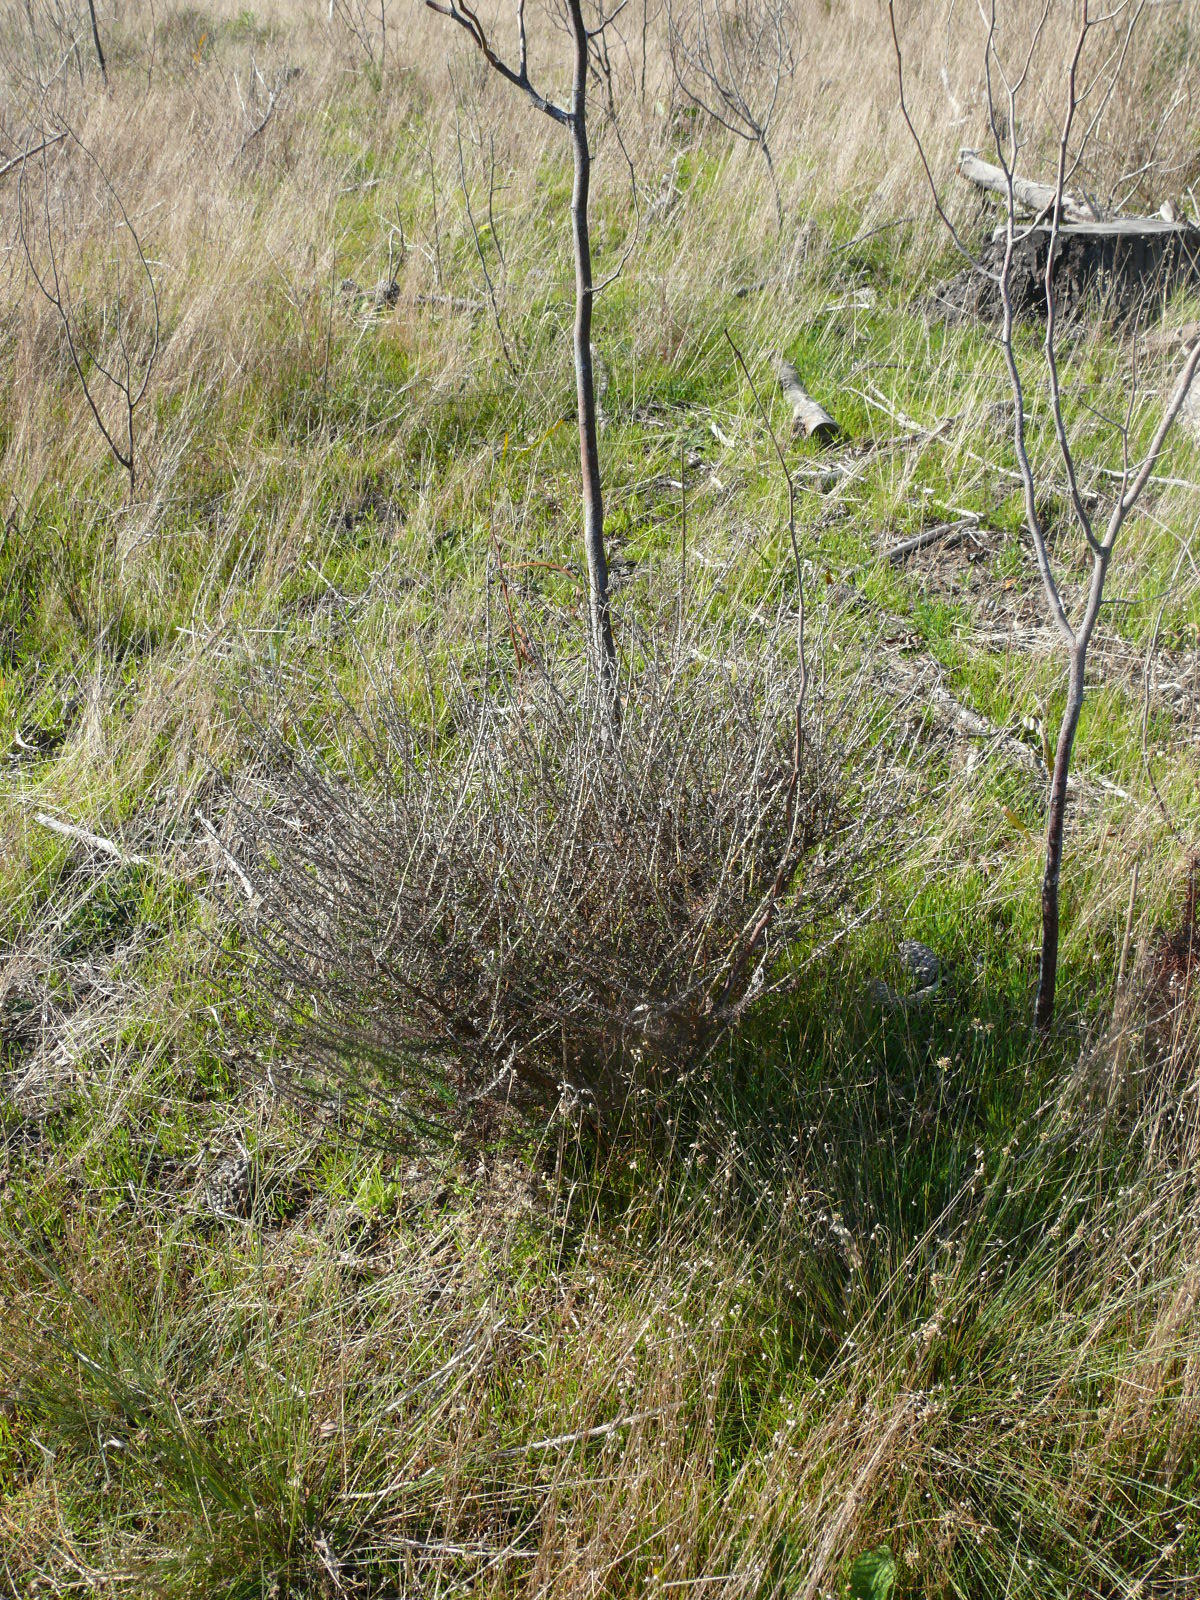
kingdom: Plantae
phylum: Tracheophyta
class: Magnoliopsida
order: Rosales
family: Rosaceae
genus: Cliffortia
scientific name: Cliffortia falcata
